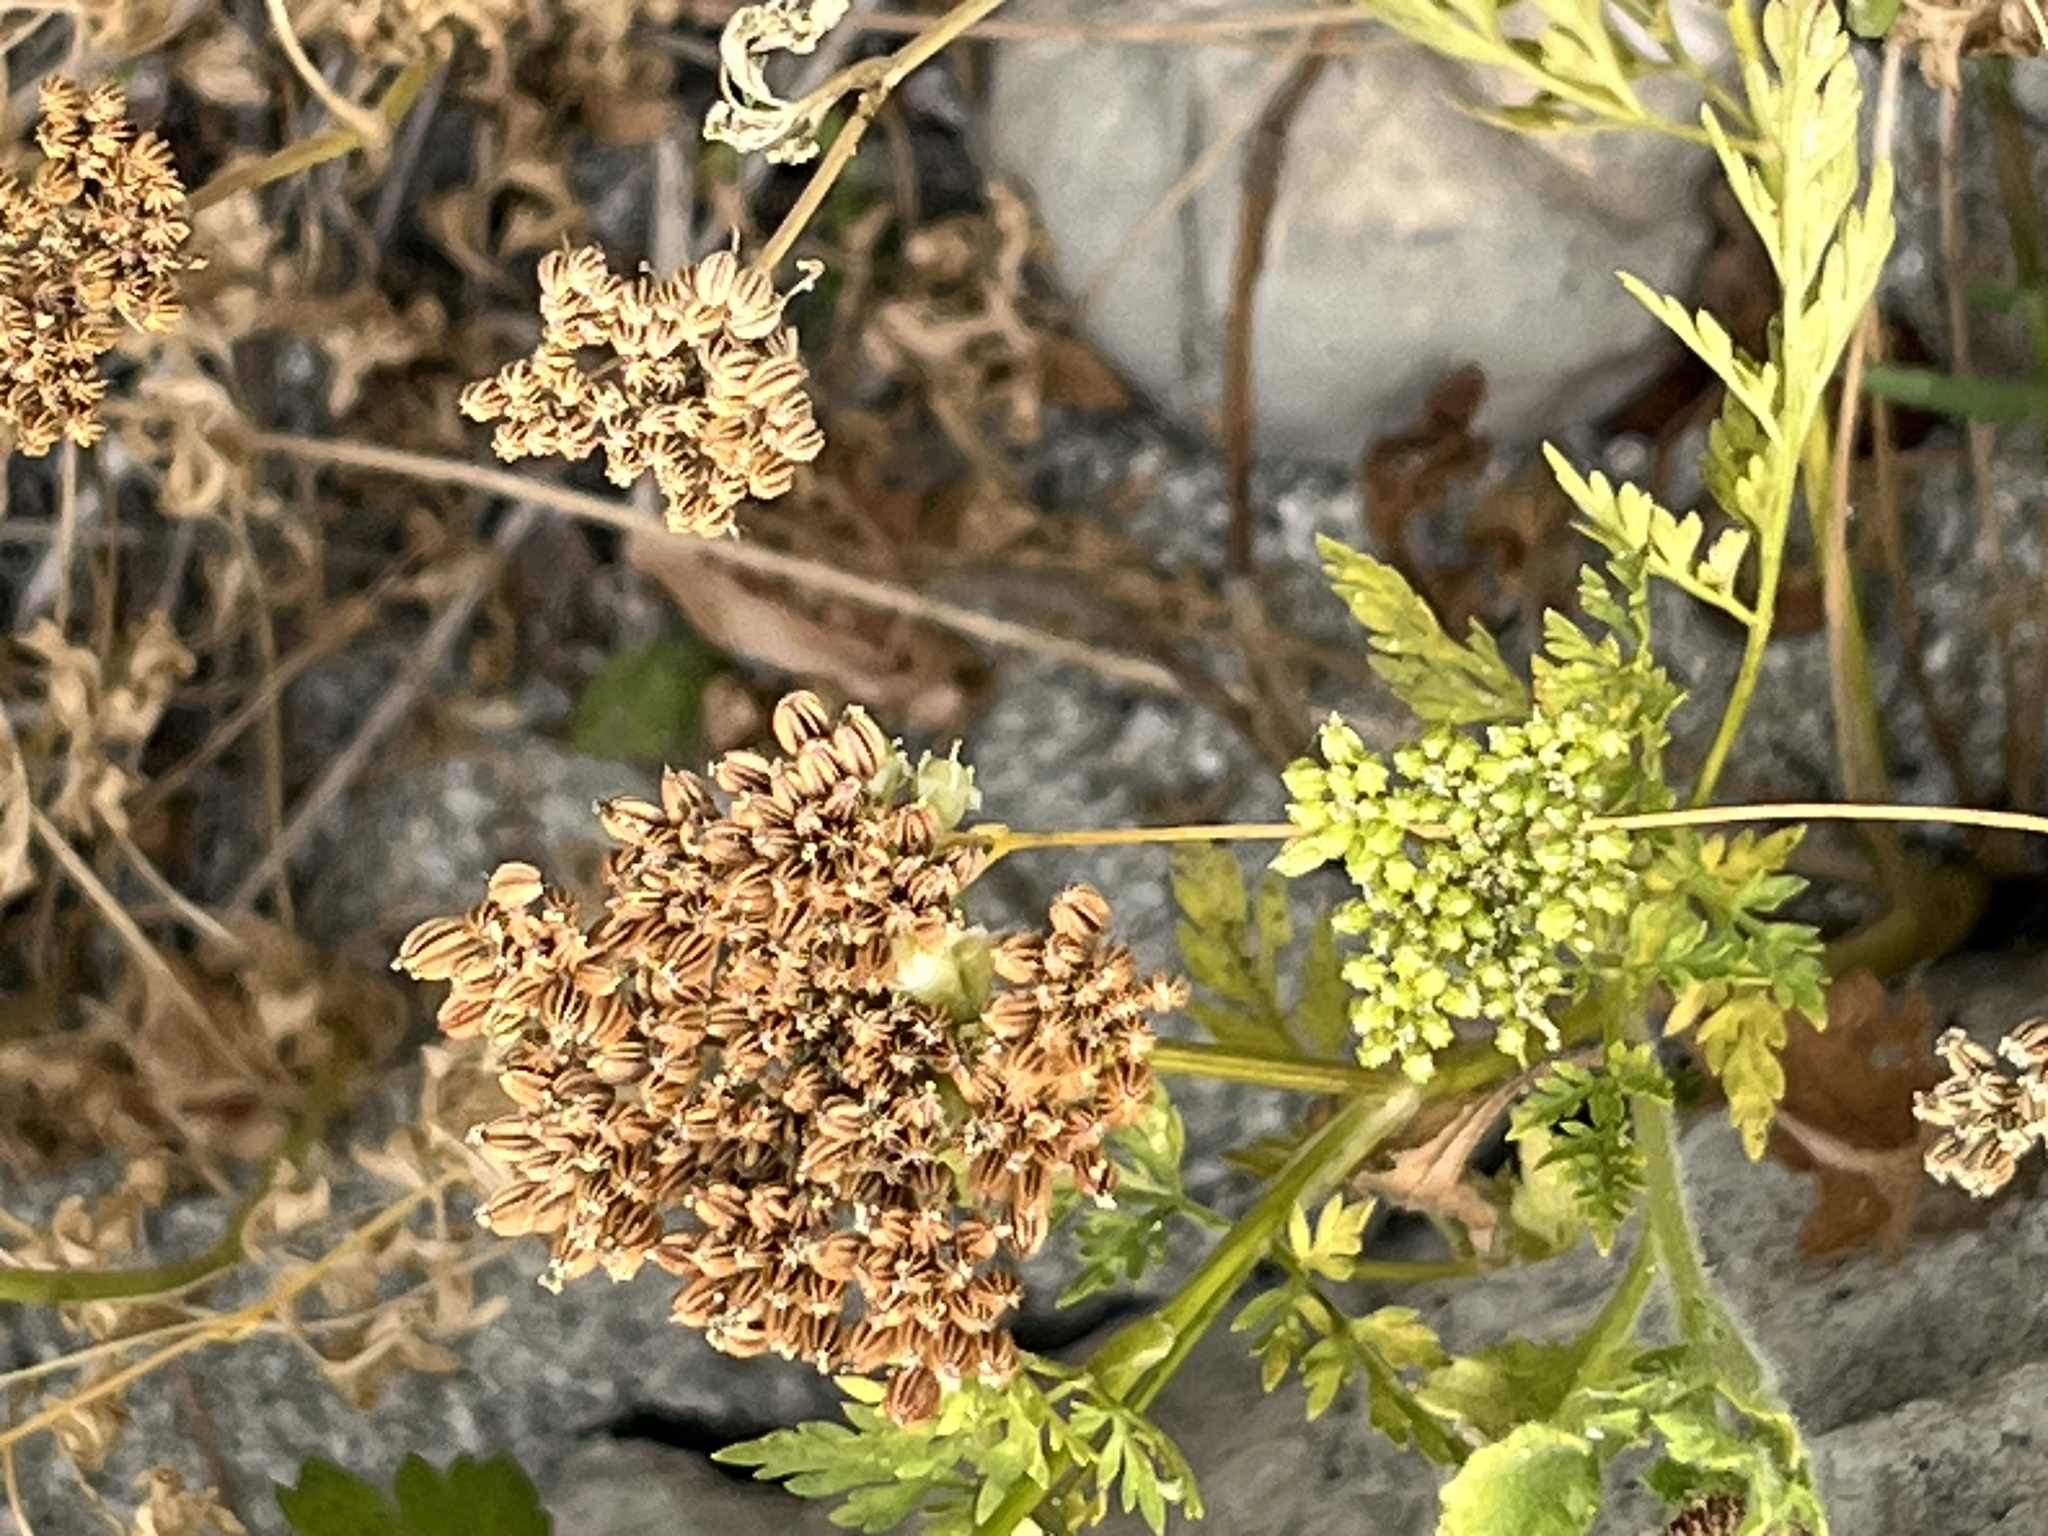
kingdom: Plantae
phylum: Tracheophyta
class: Magnoliopsida
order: Apiales
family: Apiaceae
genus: Cnidium
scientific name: Cnidium monnieri
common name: Monnier's snowparsley
